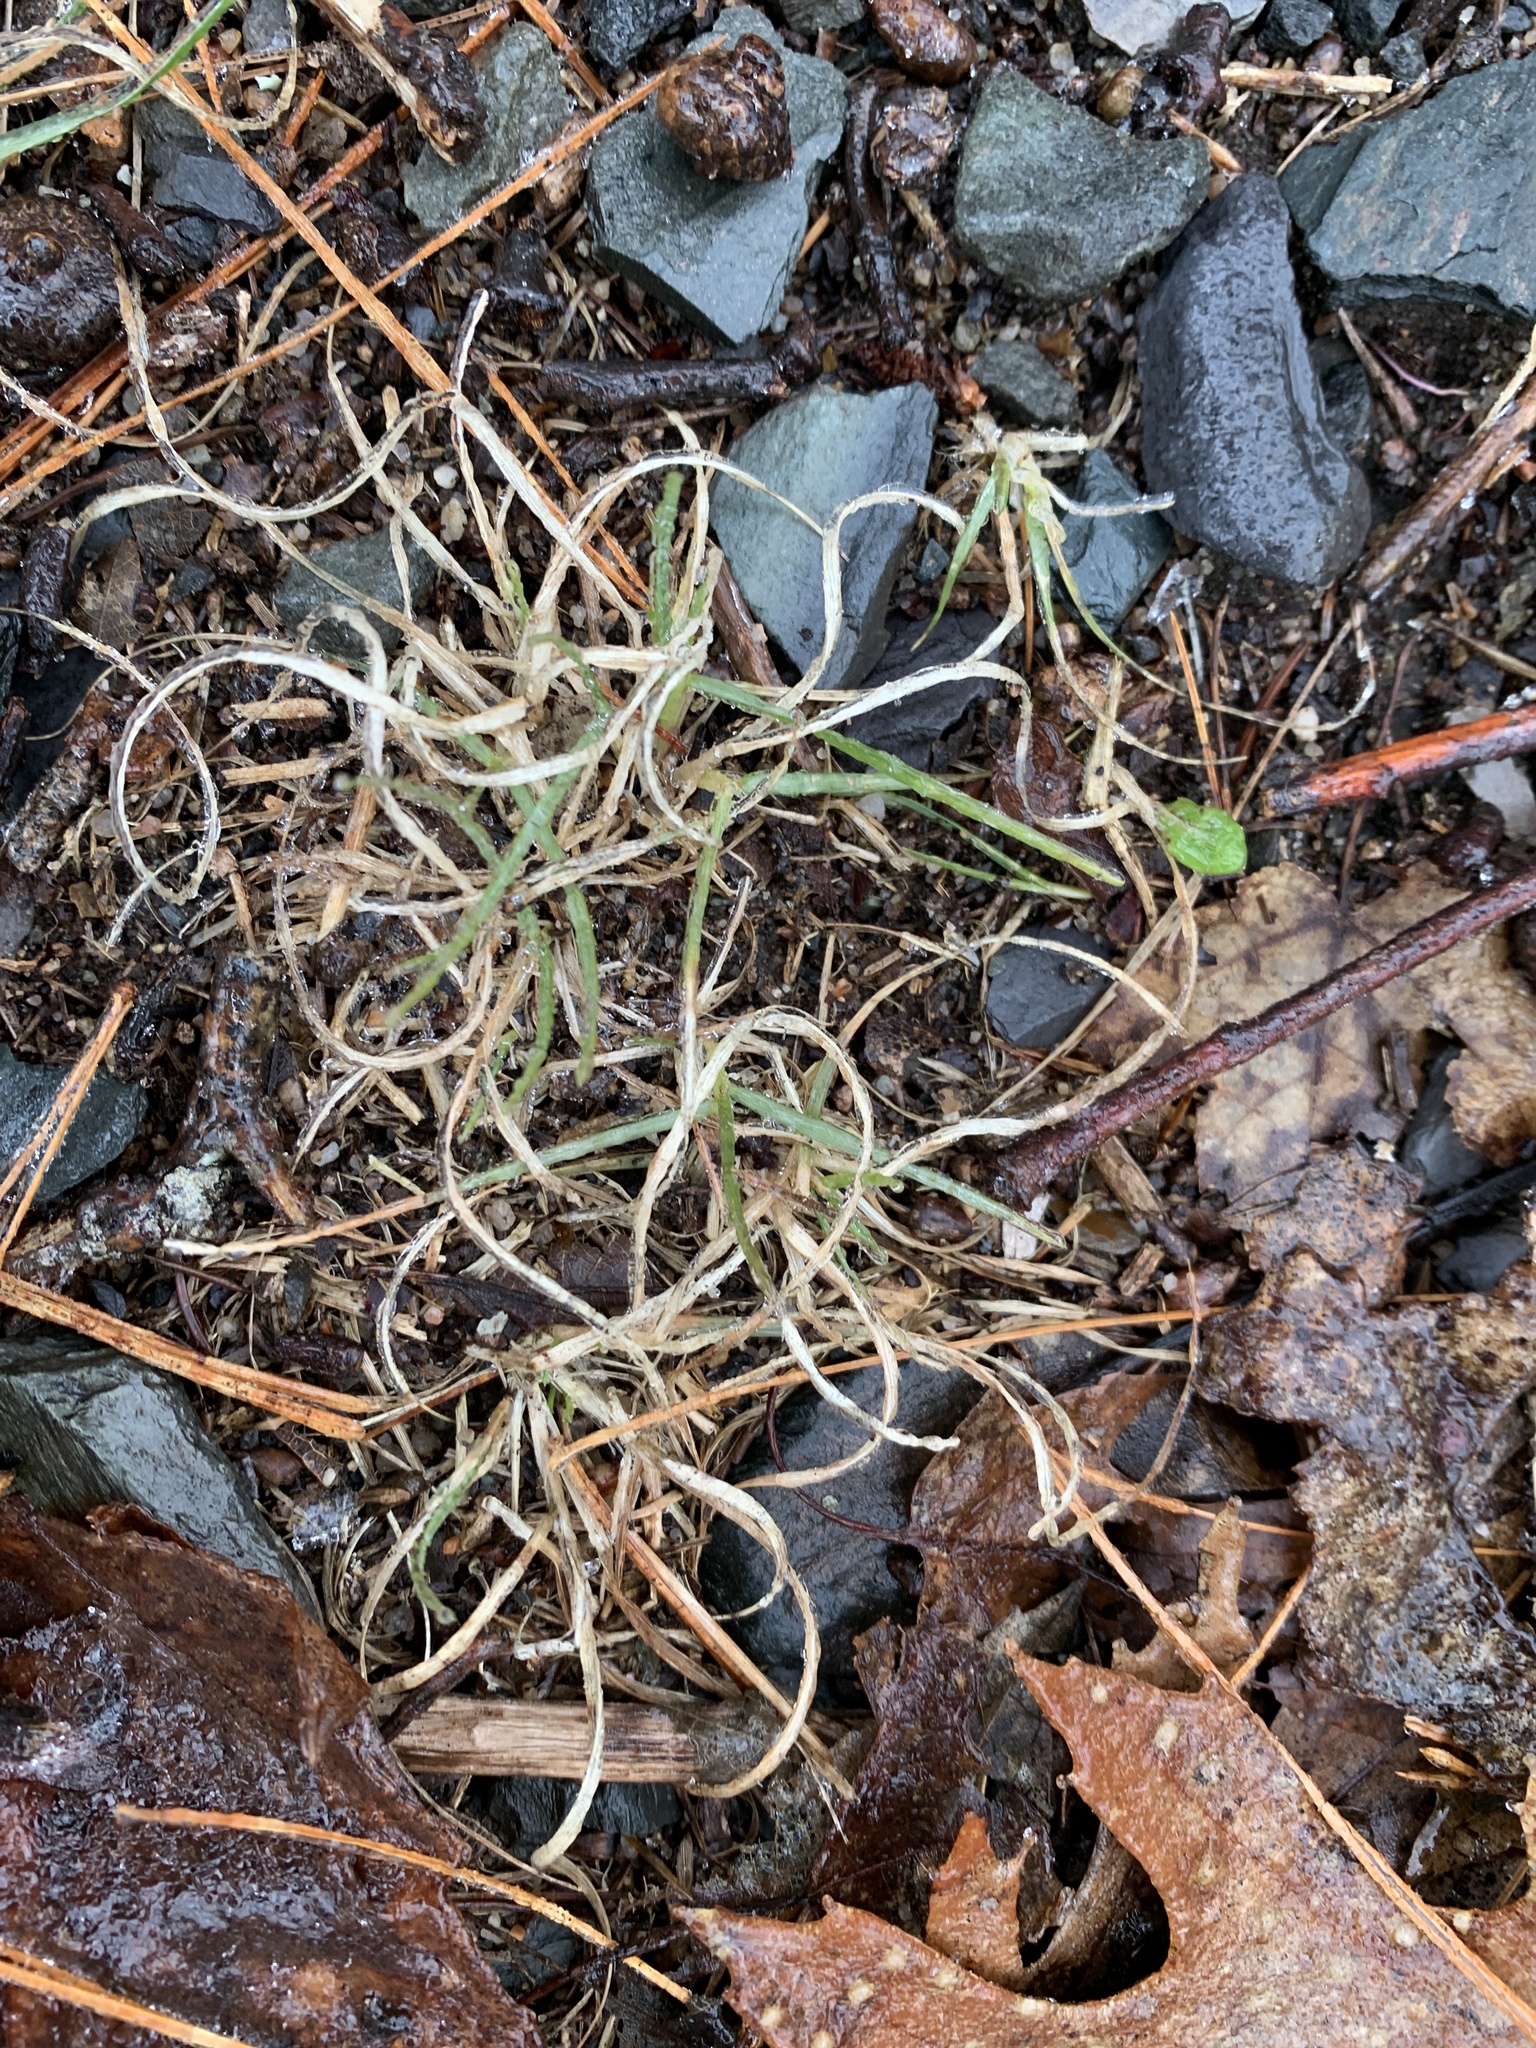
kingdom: Plantae
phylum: Tracheophyta
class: Liliopsida
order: Poales
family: Poaceae
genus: Danthonia
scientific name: Danthonia spicata
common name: Common wild oatgrass
